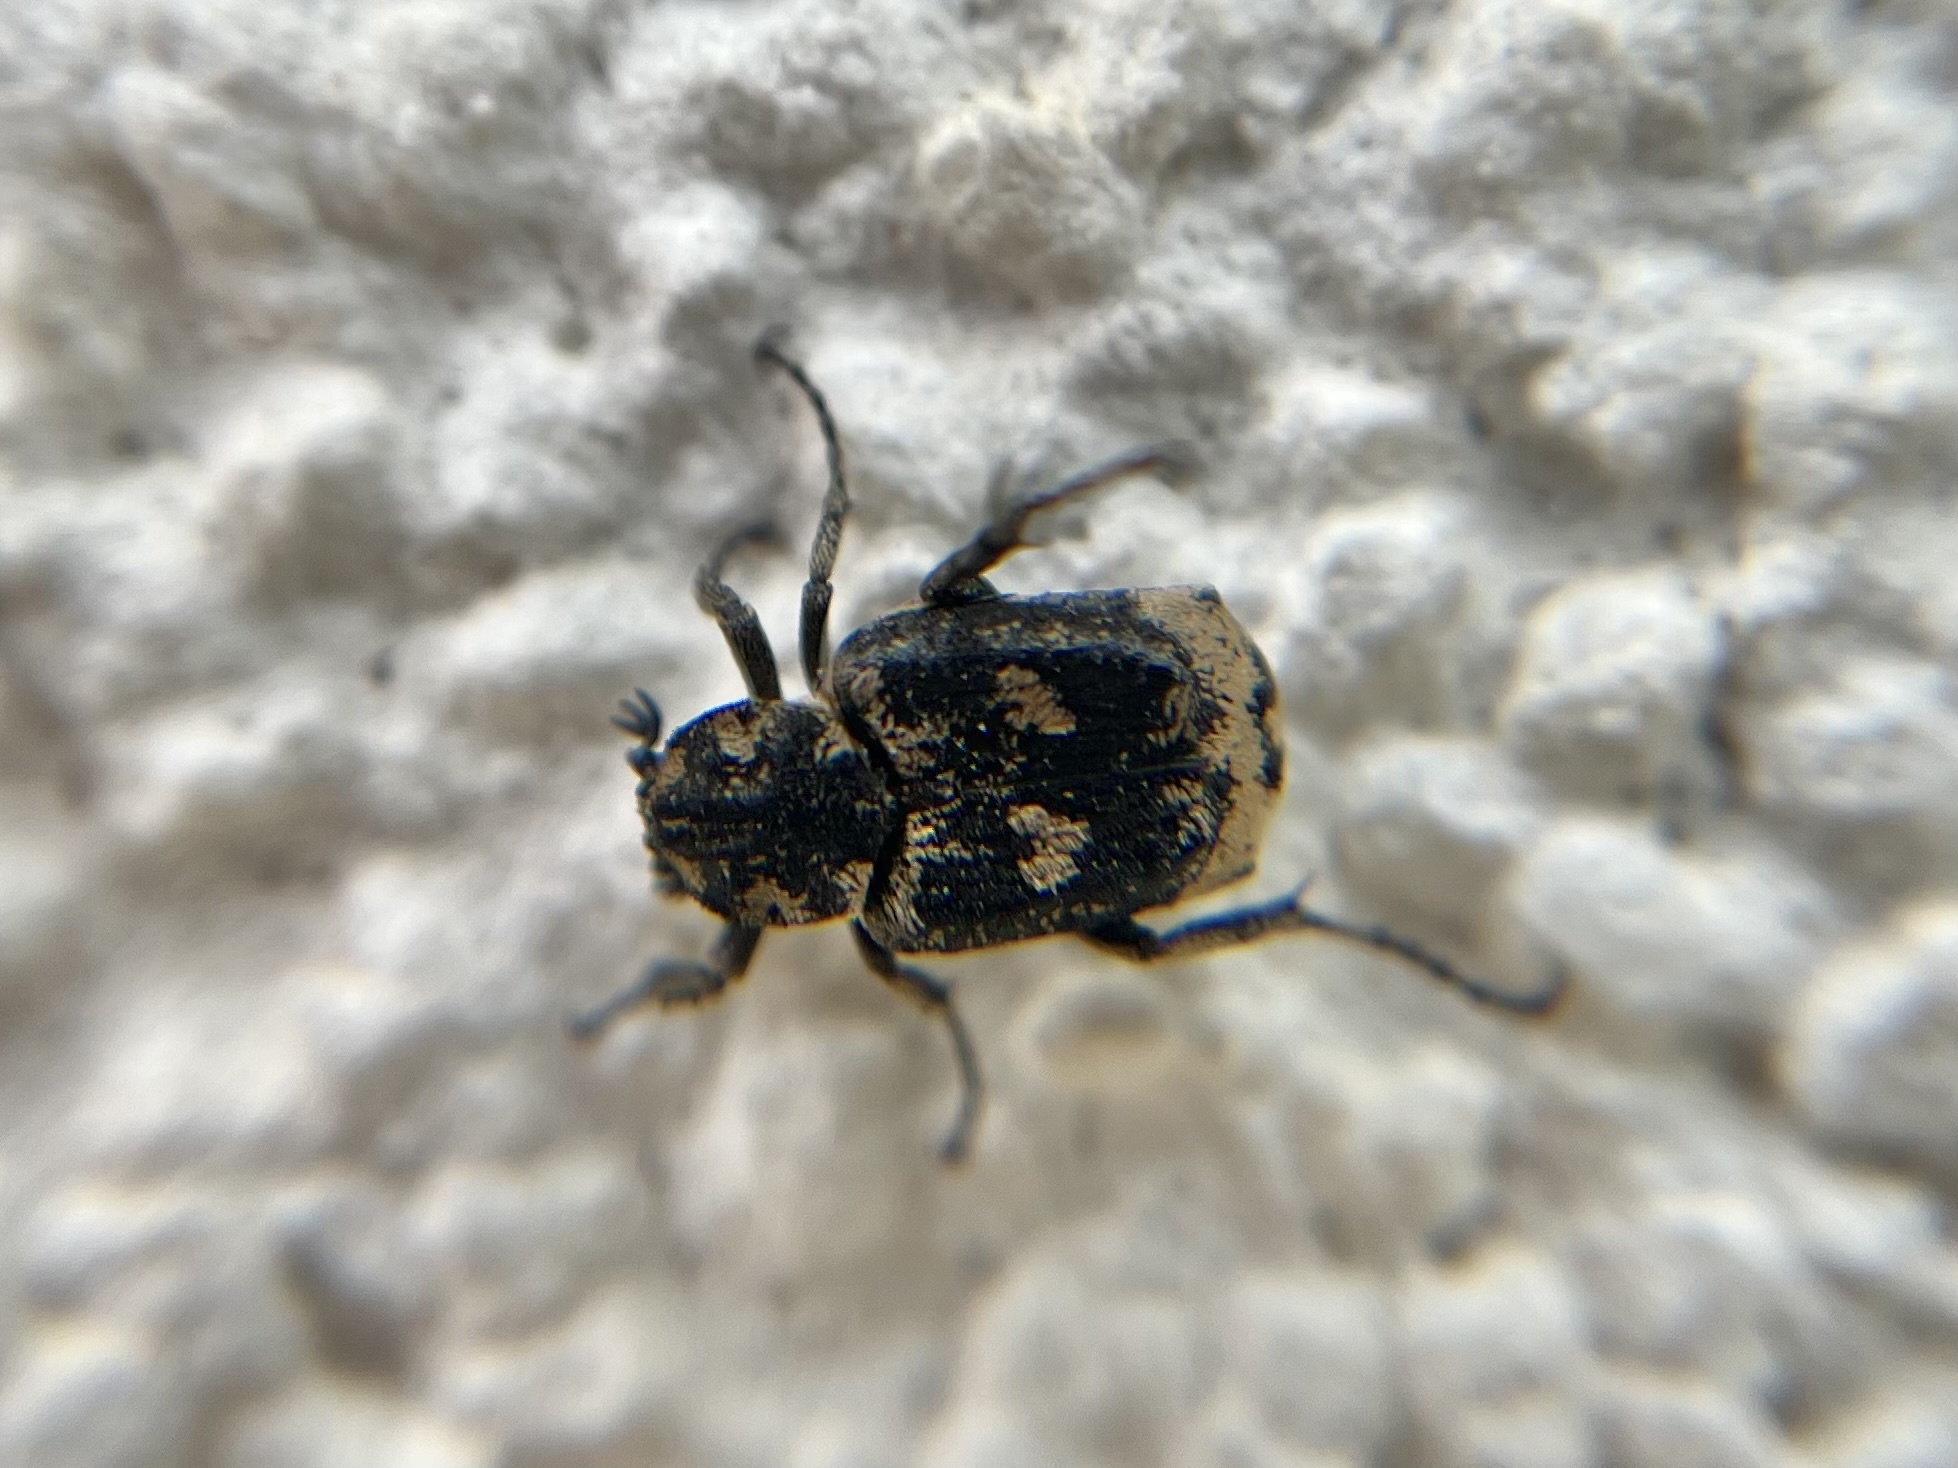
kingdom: Animalia
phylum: Arthropoda
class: Insecta
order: Coleoptera
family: Scarabaeidae
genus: Valgus
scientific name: Valgus hemipterus
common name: Bug flower chafer
